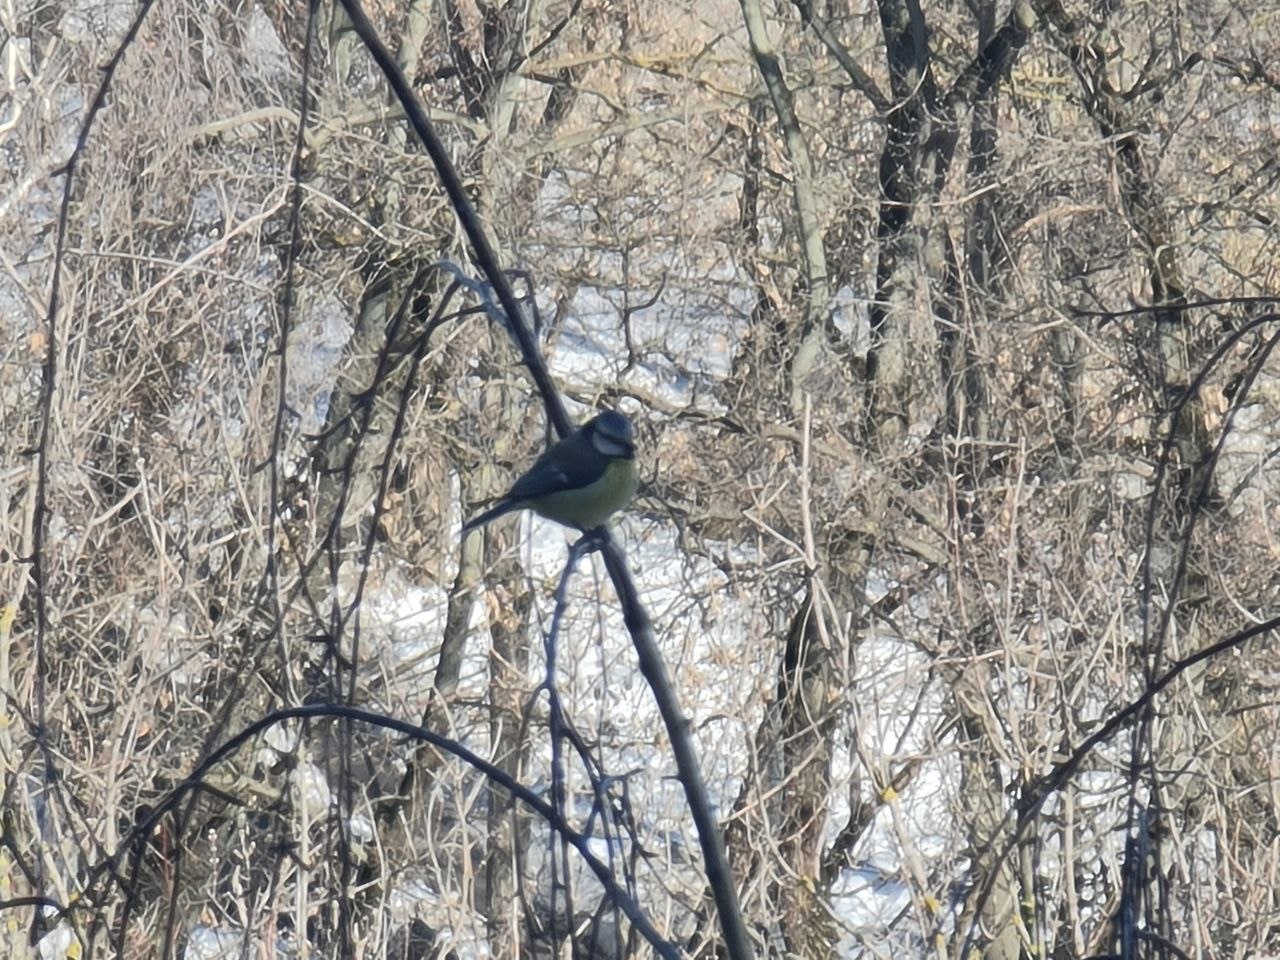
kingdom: Animalia
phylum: Chordata
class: Aves
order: Passeriformes
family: Paridae
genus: Cyanistes
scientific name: Cyanistes caeruleus
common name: Eurasian blue tit
